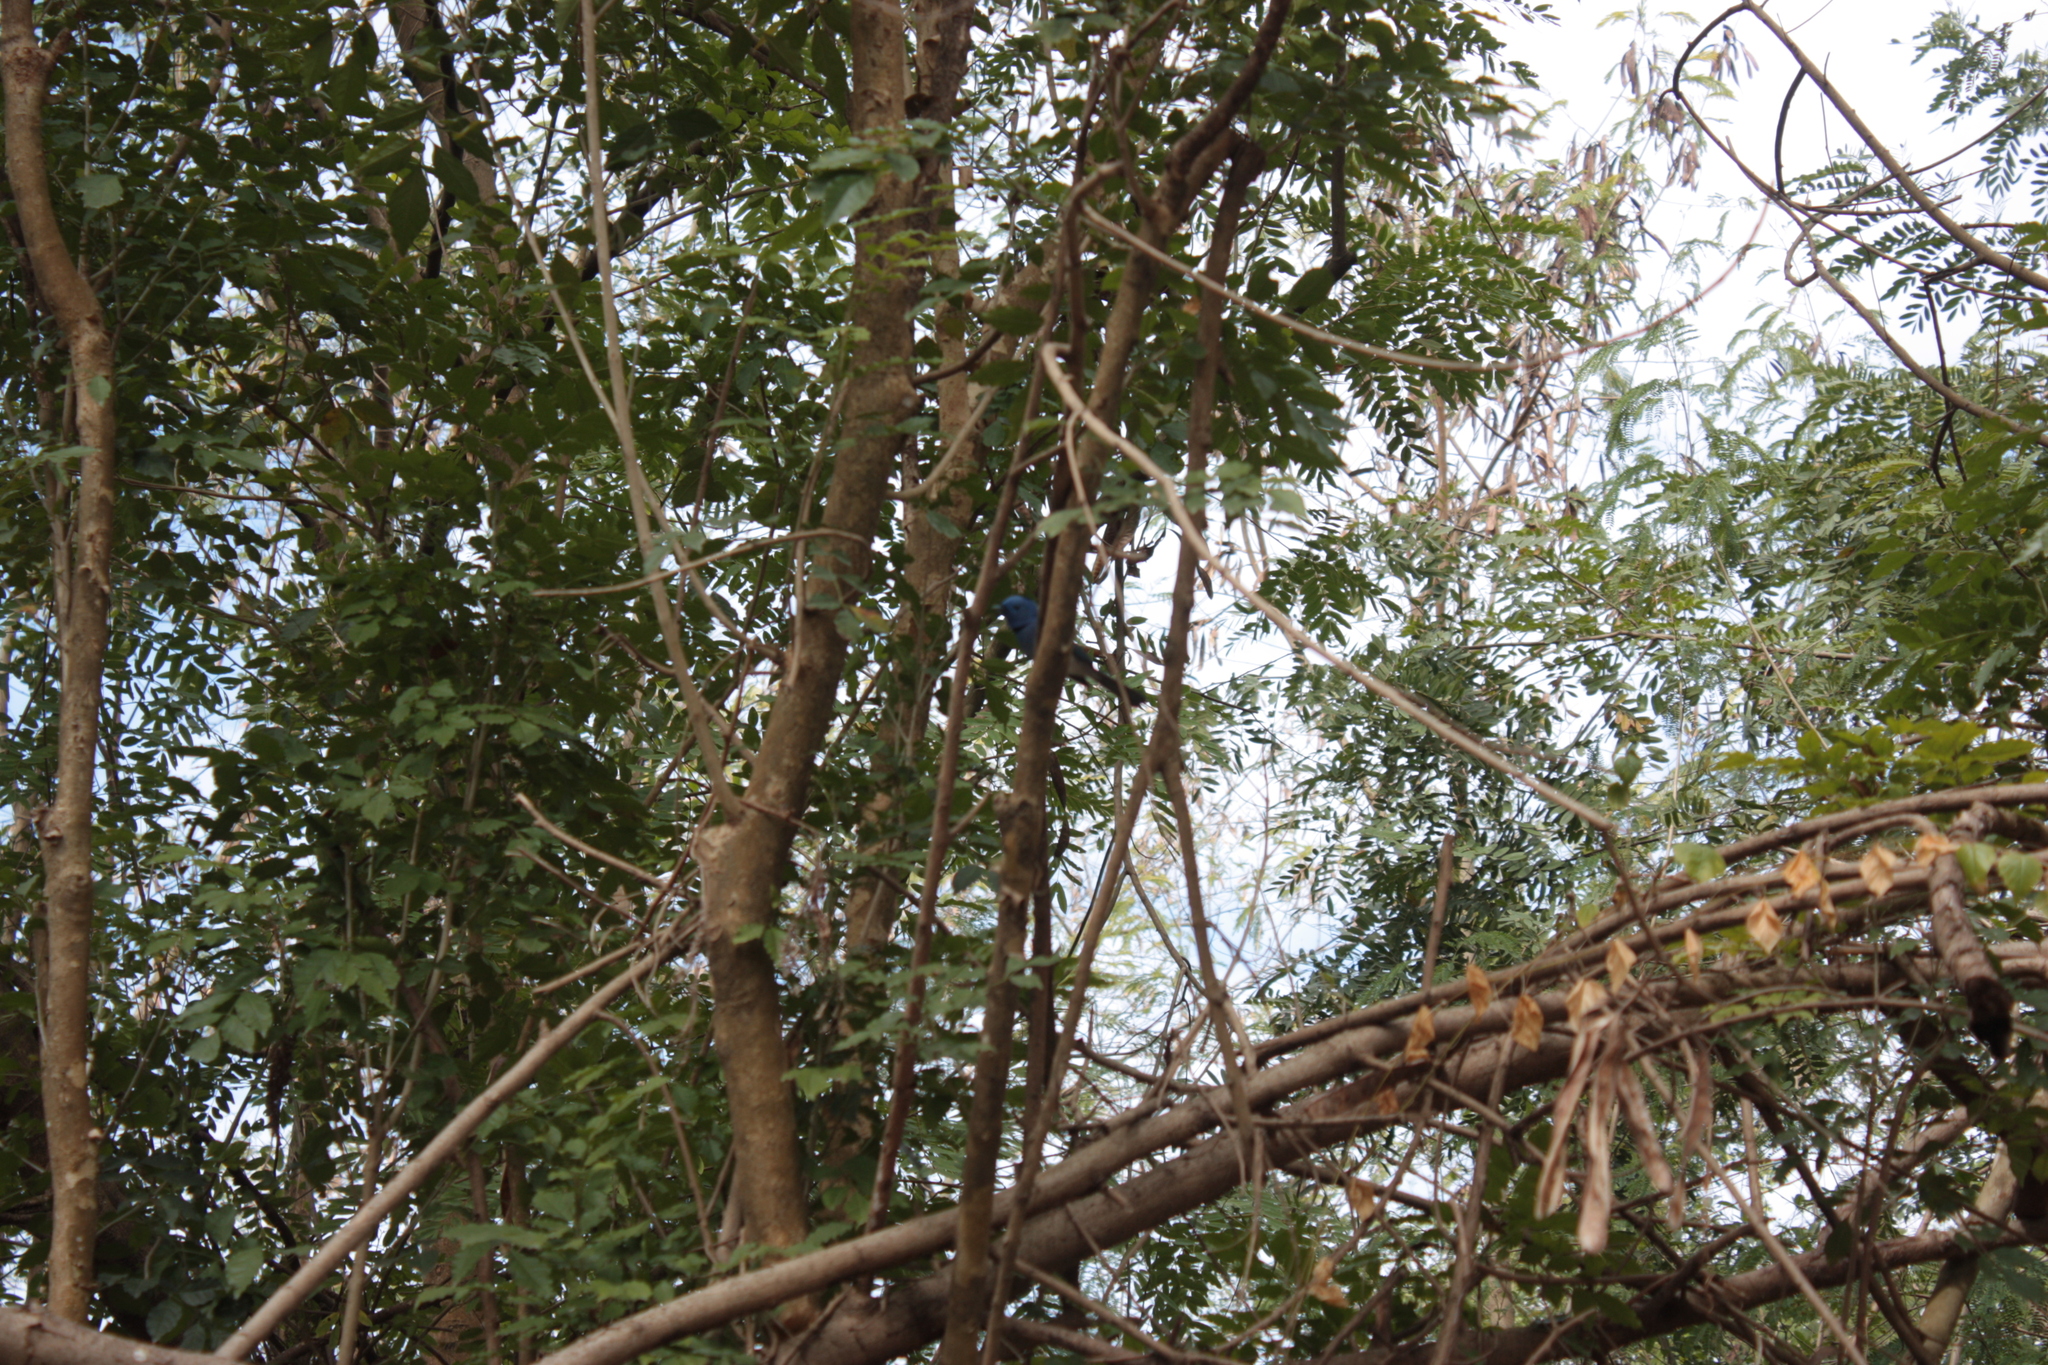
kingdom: Animalia
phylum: Chordata
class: Aves
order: Passeriformes
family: Monarchidae
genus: Hypothymis
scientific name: Hypothymis azurea
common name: Black-naped monarch
